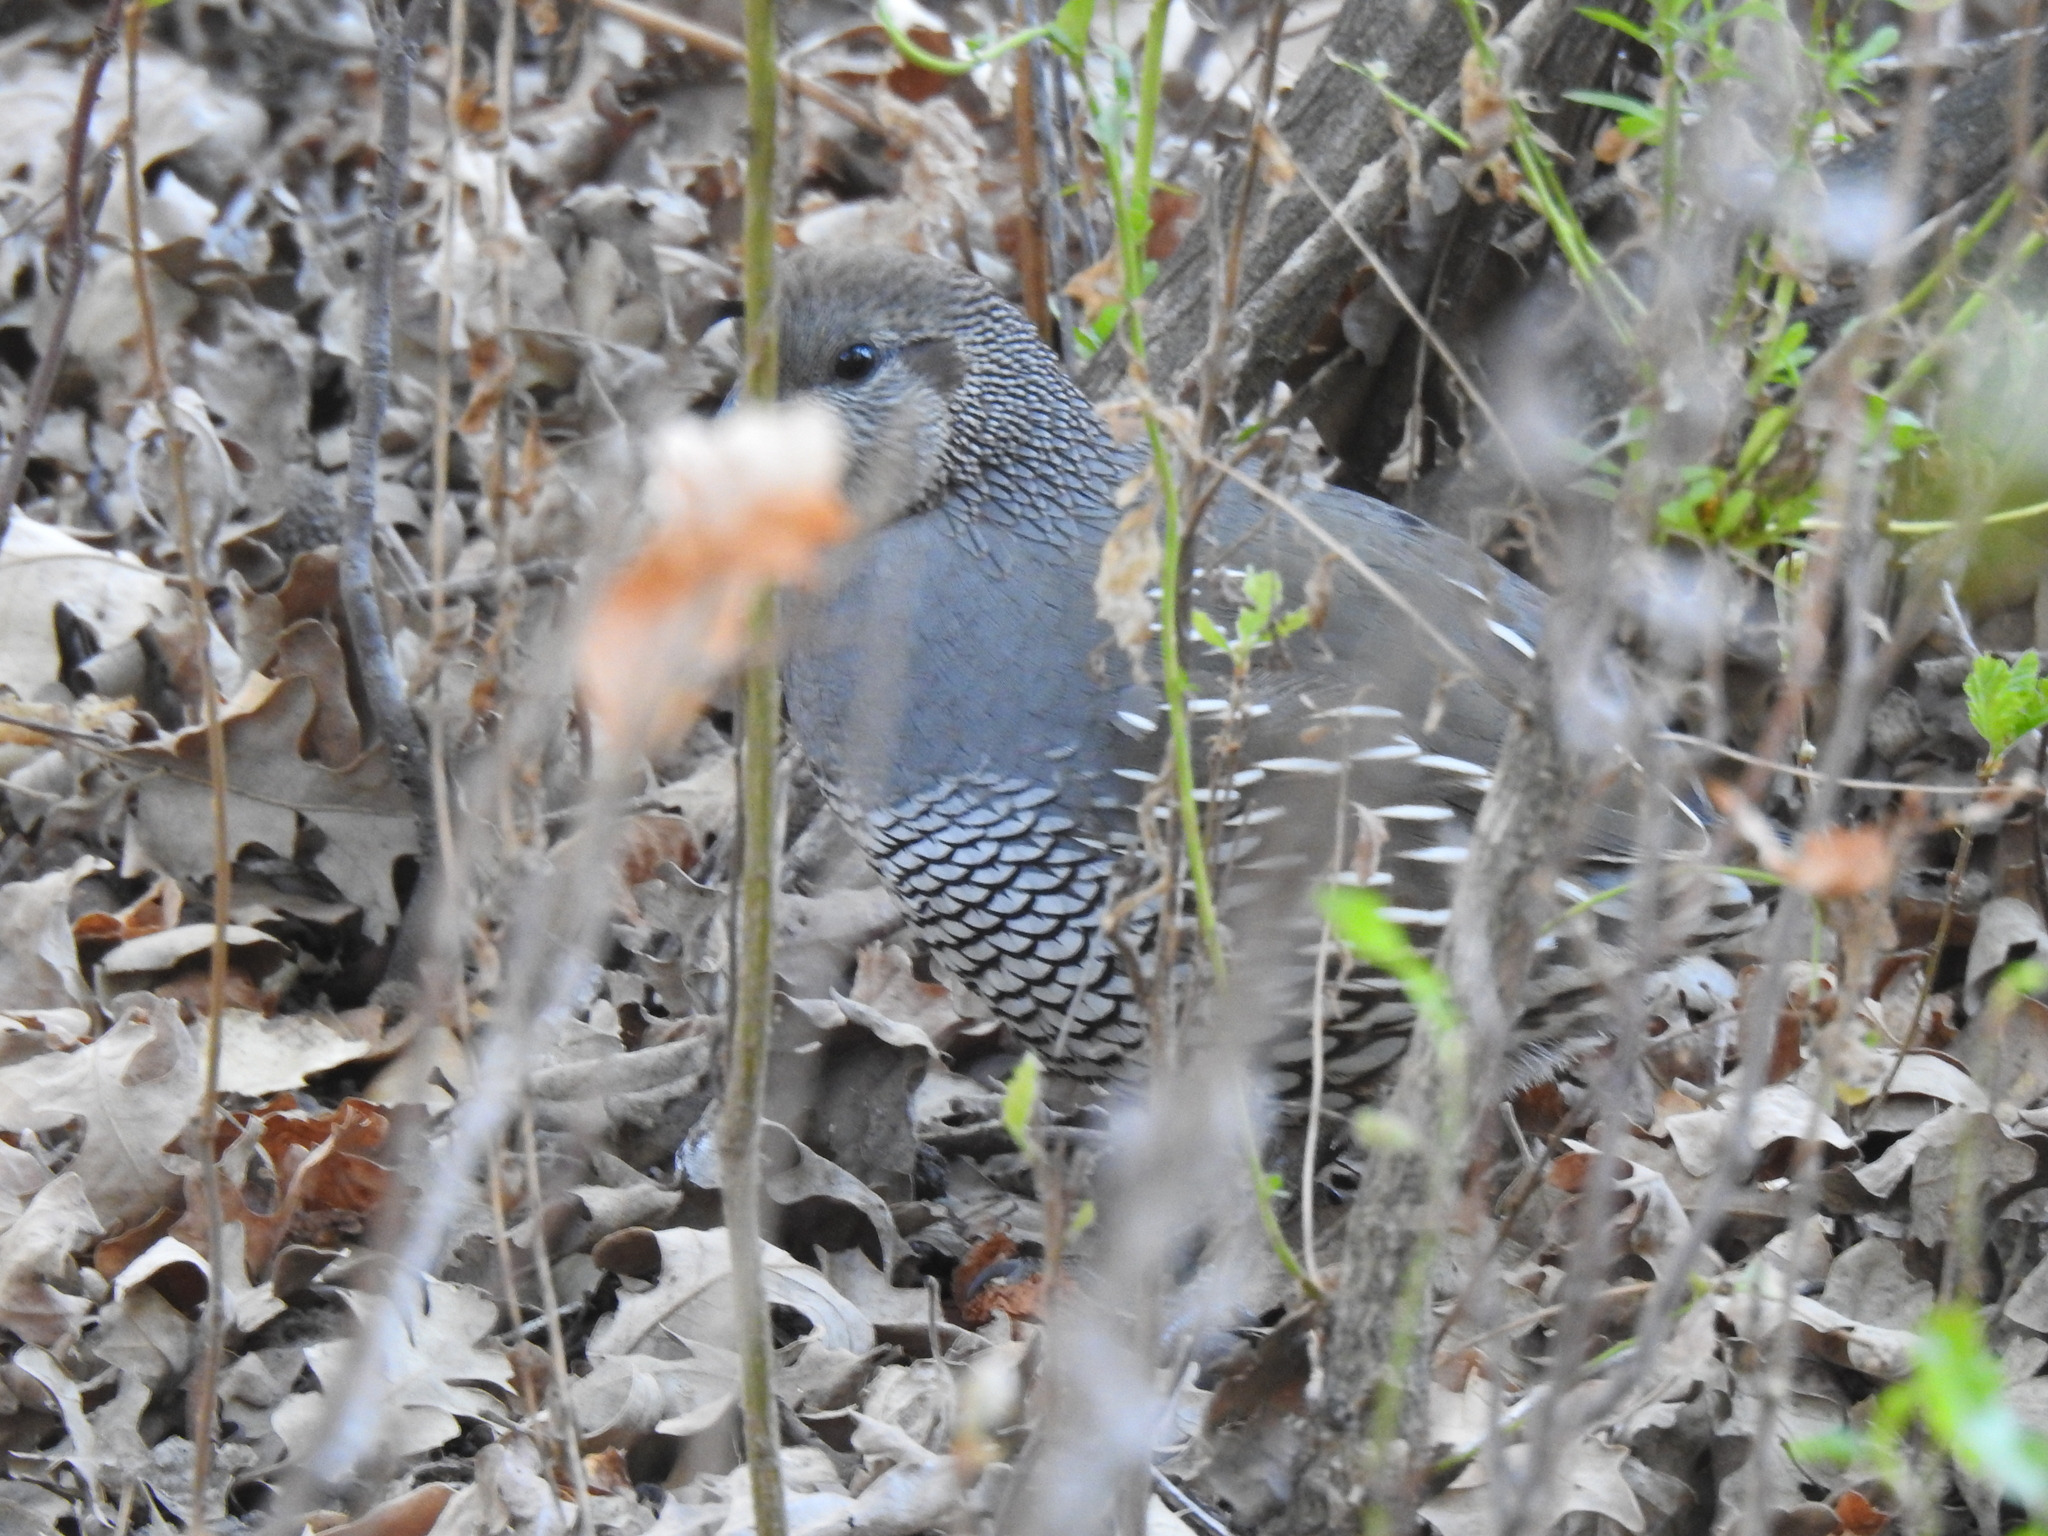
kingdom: Animalia
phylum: Chordata
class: Aves
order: Galliformes
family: Odontophoridae
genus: Callipepla
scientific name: Callipepla californica
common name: California quail
